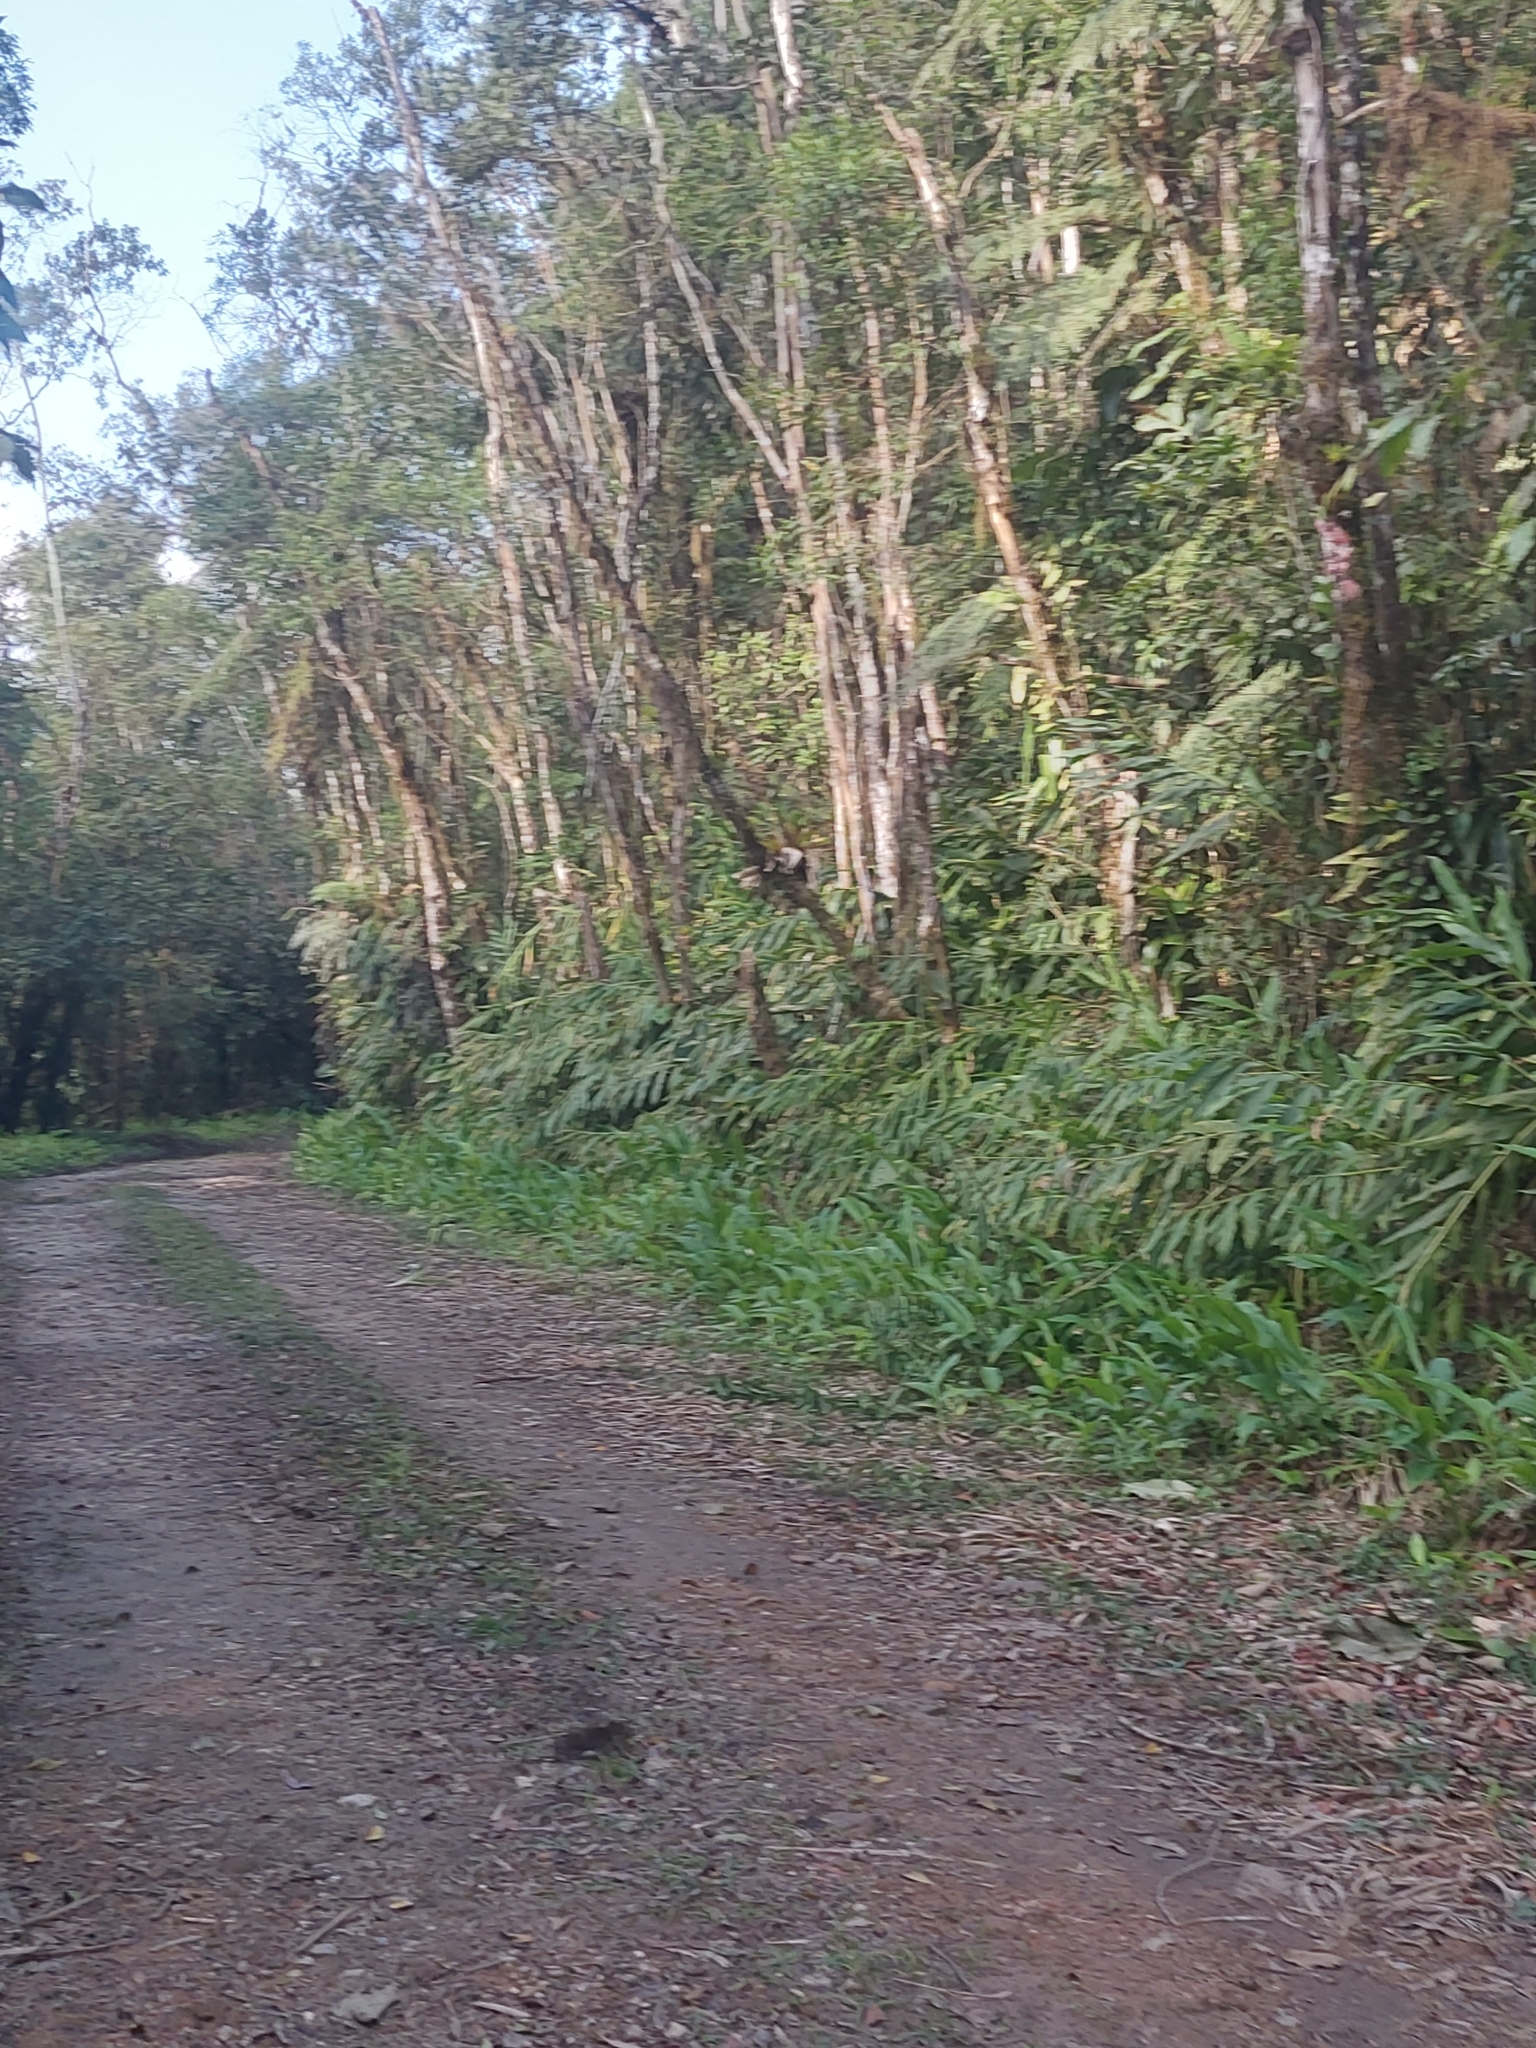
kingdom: Plantae
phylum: Tracheophyta
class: Liliopsida
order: Zingiberales
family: Zingiberaceae
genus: Hedychium
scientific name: Hedychium coronarium
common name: White garland-lily
